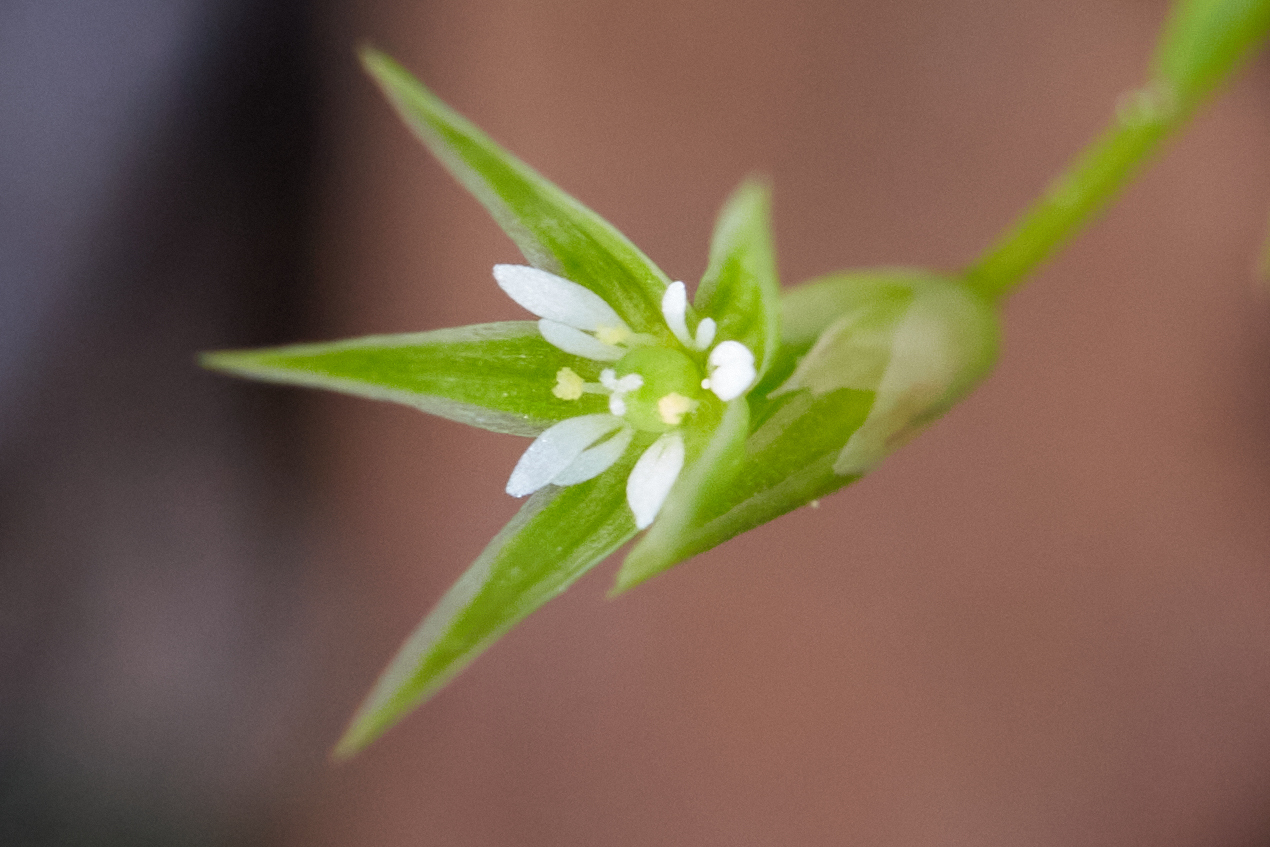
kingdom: Plantae
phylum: Tracheophyta
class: Magnoliopsida
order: Caryophyllales
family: Caryophyllaceae
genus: Stellaria
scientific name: Stellaria nitens
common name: Shining starwort
